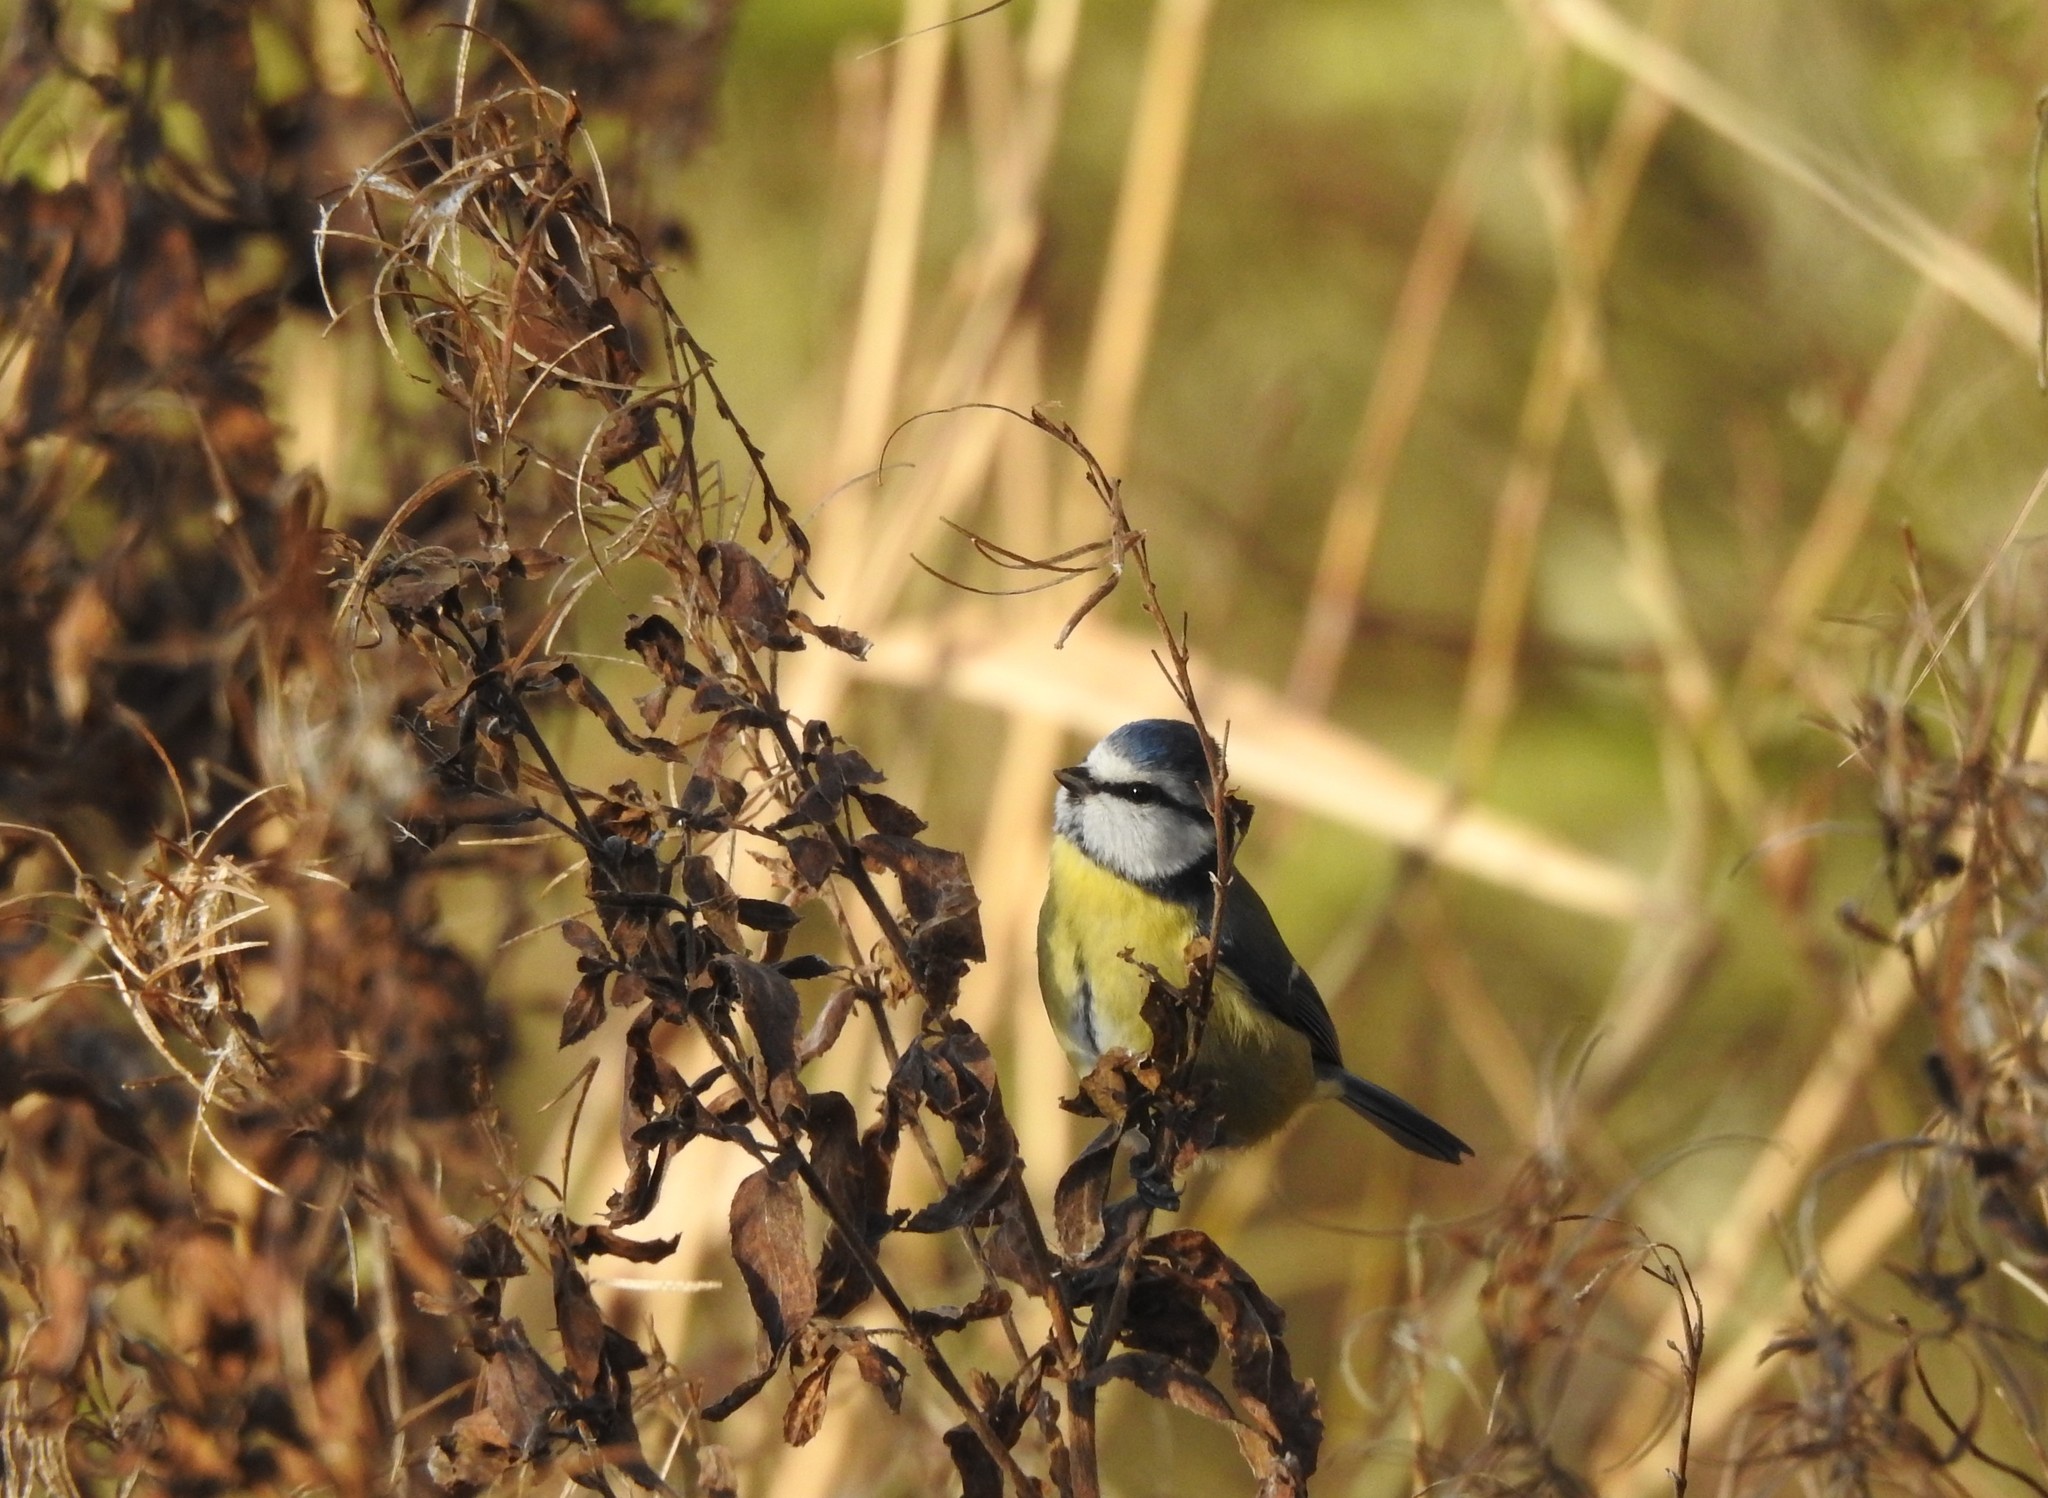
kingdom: Animalia
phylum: Chordata
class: Aves
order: Passeriformes
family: Paridae
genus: Cyanistes
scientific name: Cyanistes caeruleus
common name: Eurasian blue tit
